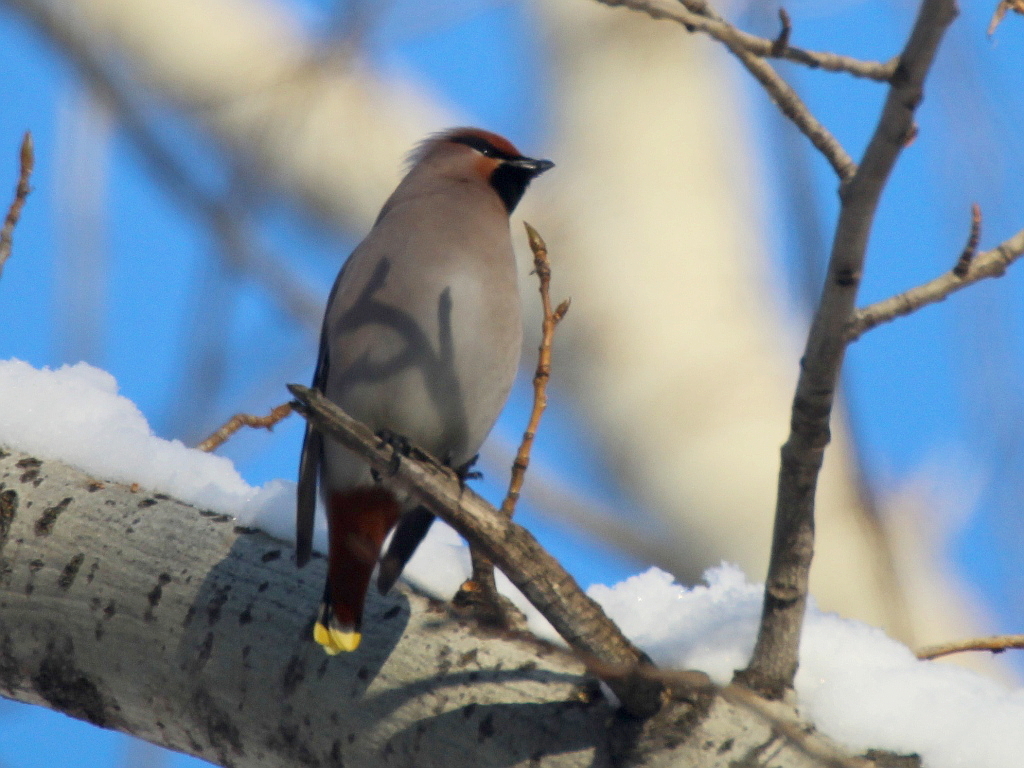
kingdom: Animalia
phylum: Chordata
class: Aves
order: Passeriformes
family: Bombycillidae
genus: Bombycilla
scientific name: Bombycilla garrulus
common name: Bohemian waxwing
